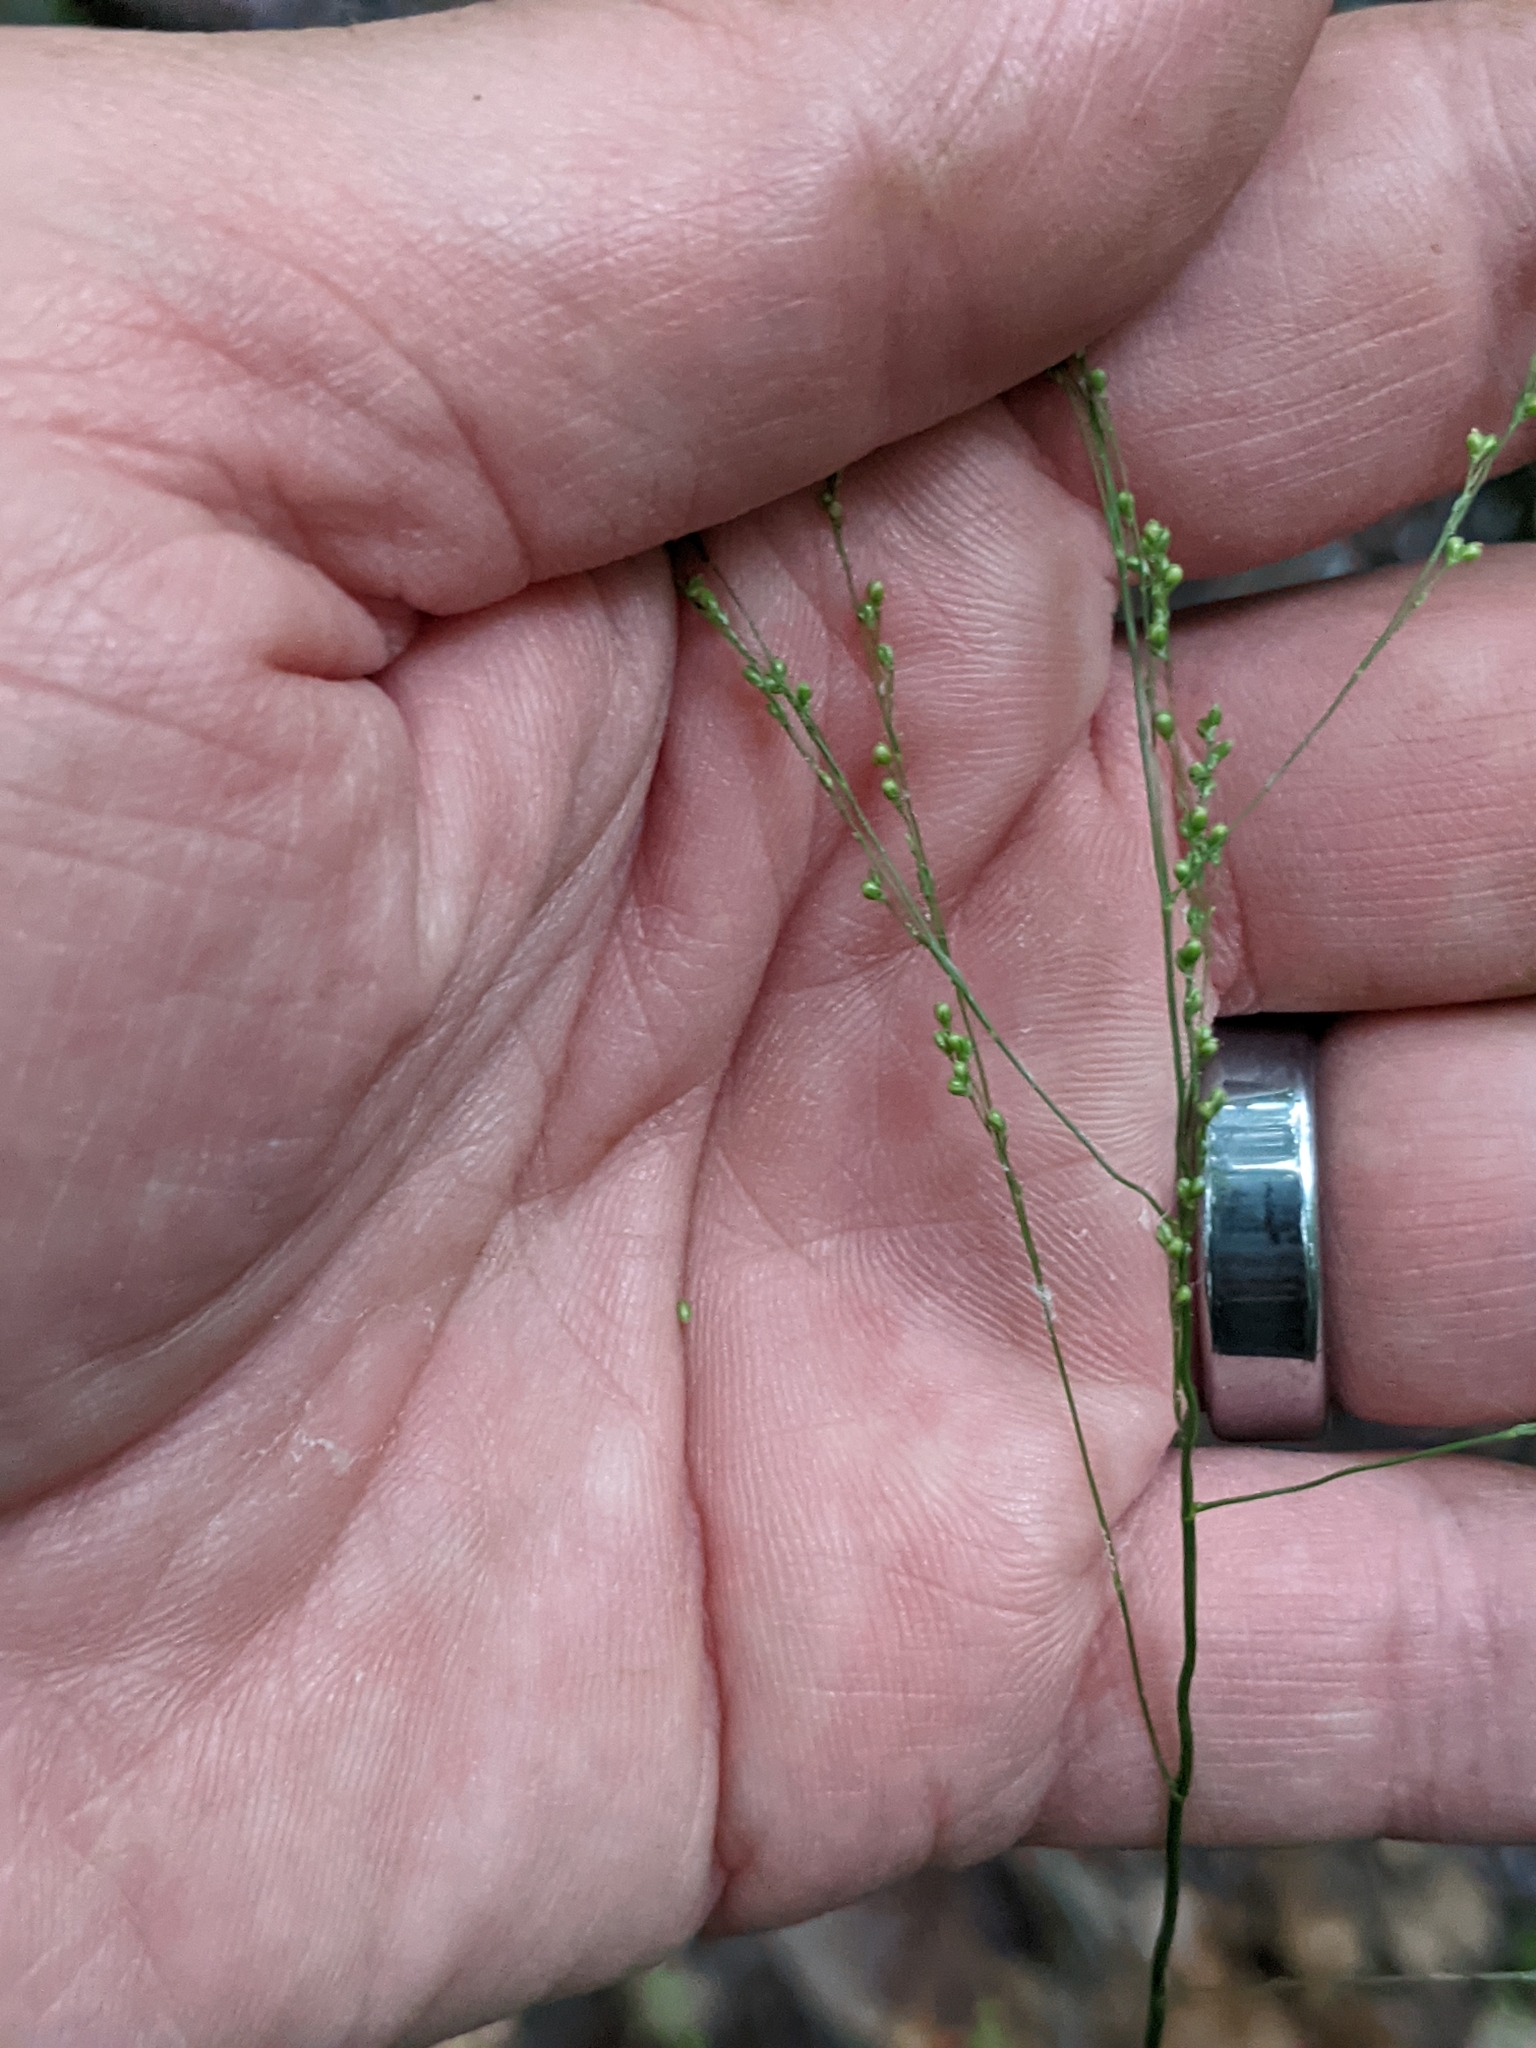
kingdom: Plantae
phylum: Tracheophyta
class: Liliopsida
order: Poales
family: Poaceae
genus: Glyceria
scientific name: Glyceria striata
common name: Fowl manna grass
